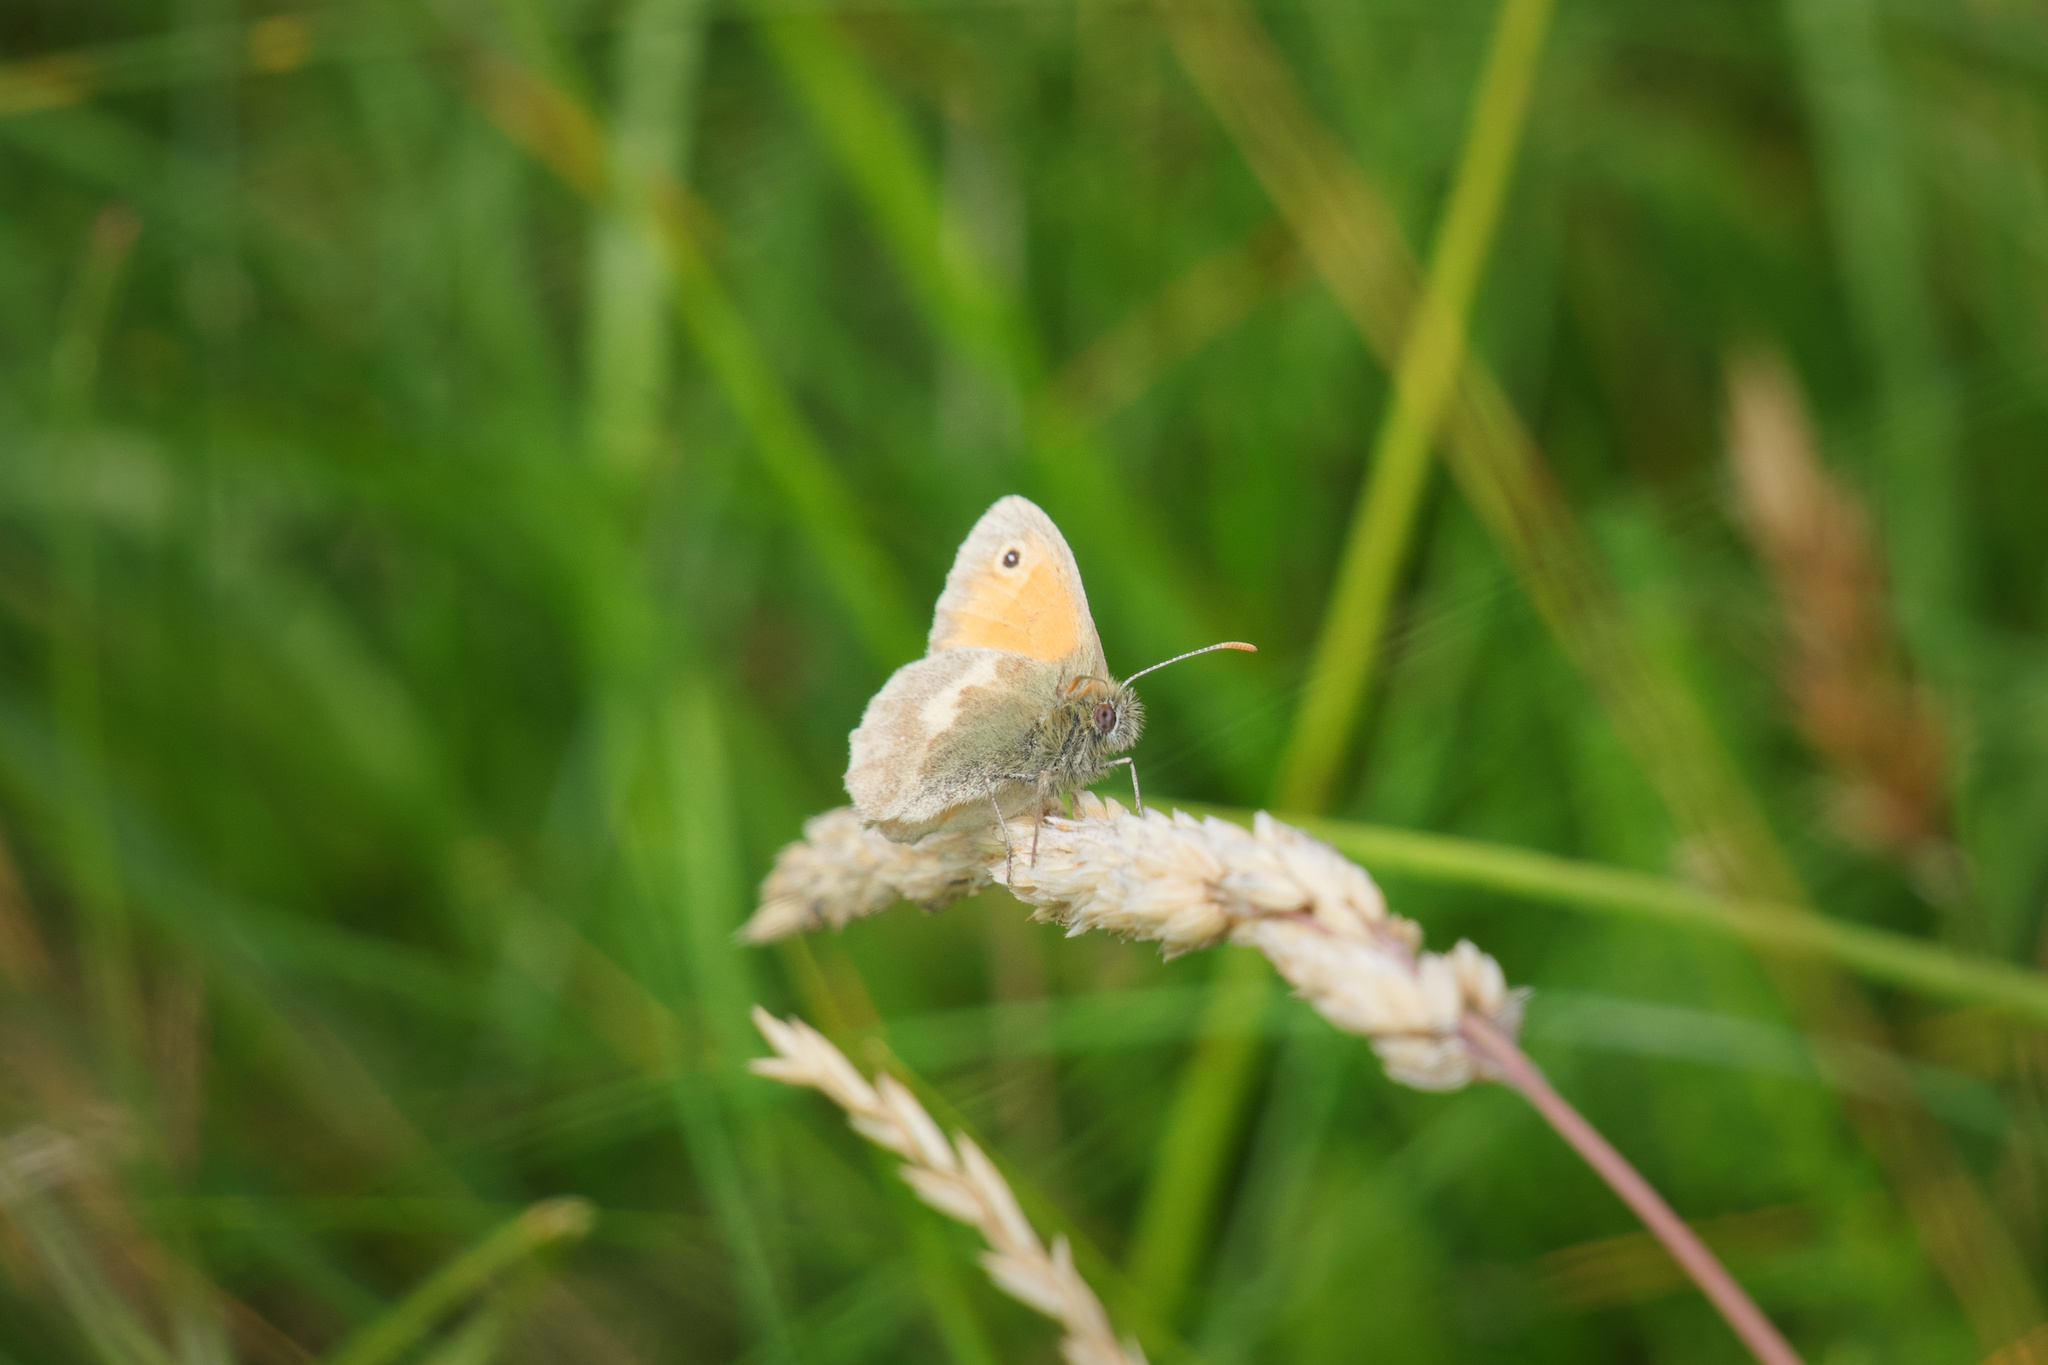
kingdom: Animalia
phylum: Arthropoda
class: Insecta
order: Lepidoptera
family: Nymphalidae
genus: Coenonympha
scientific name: Coenonympha pamphilus
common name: Small heath
